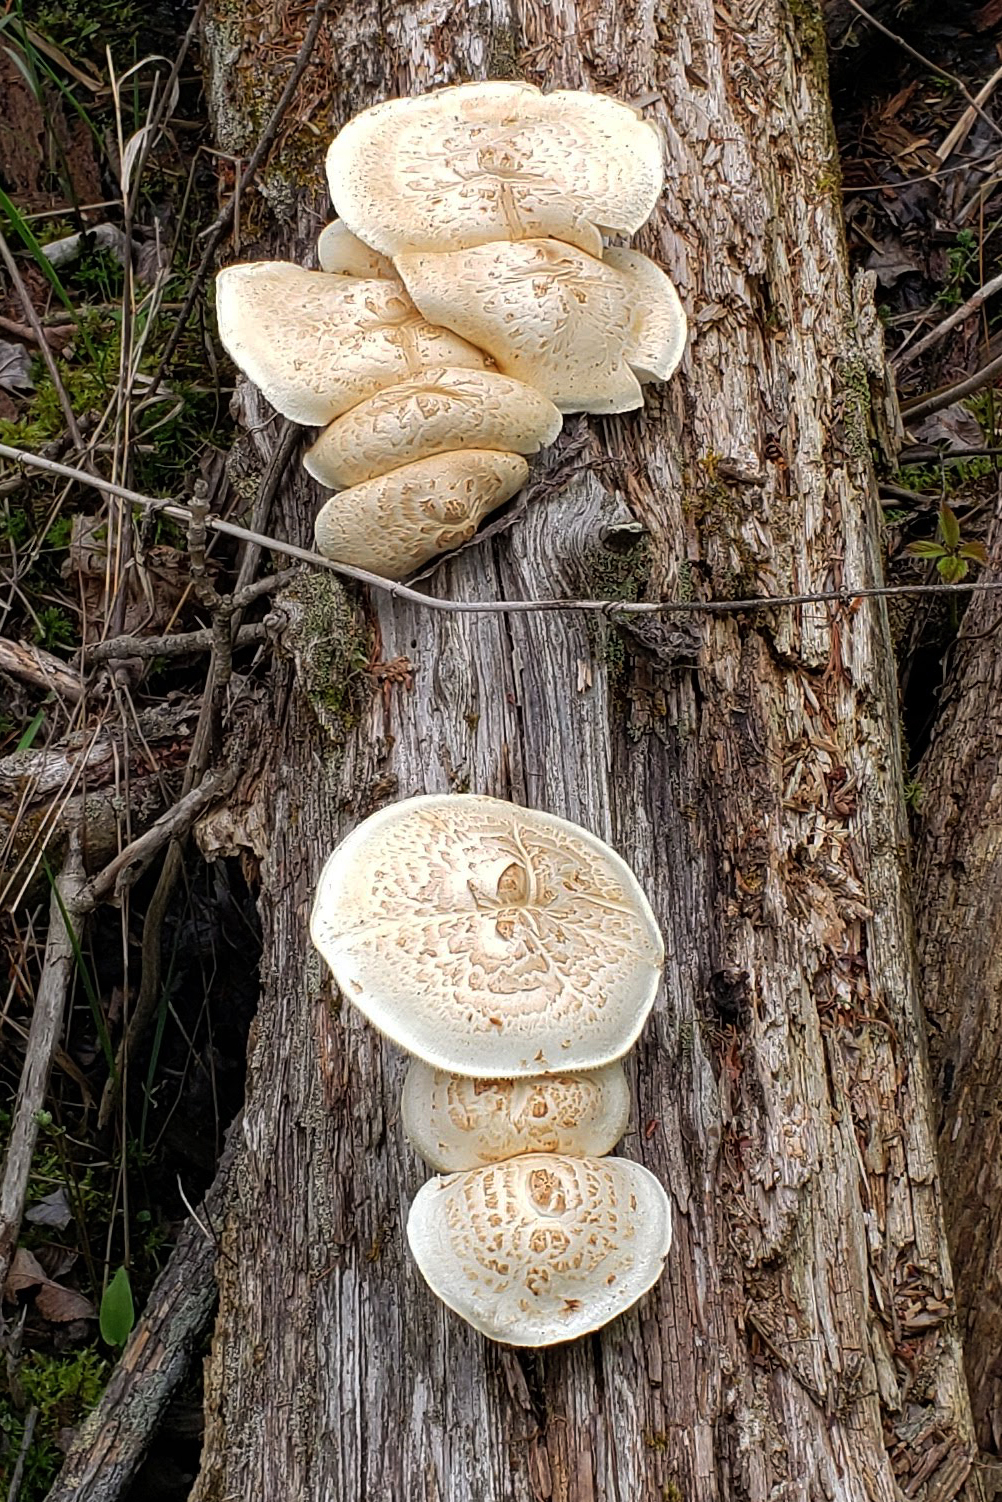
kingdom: Fungi
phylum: Basidiomycota
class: Agaricomycetes
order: Gloeophyllales
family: Gloeophyllaceae
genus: Neolentinus
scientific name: Neolentinus lepideus
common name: Scaly sawgill
